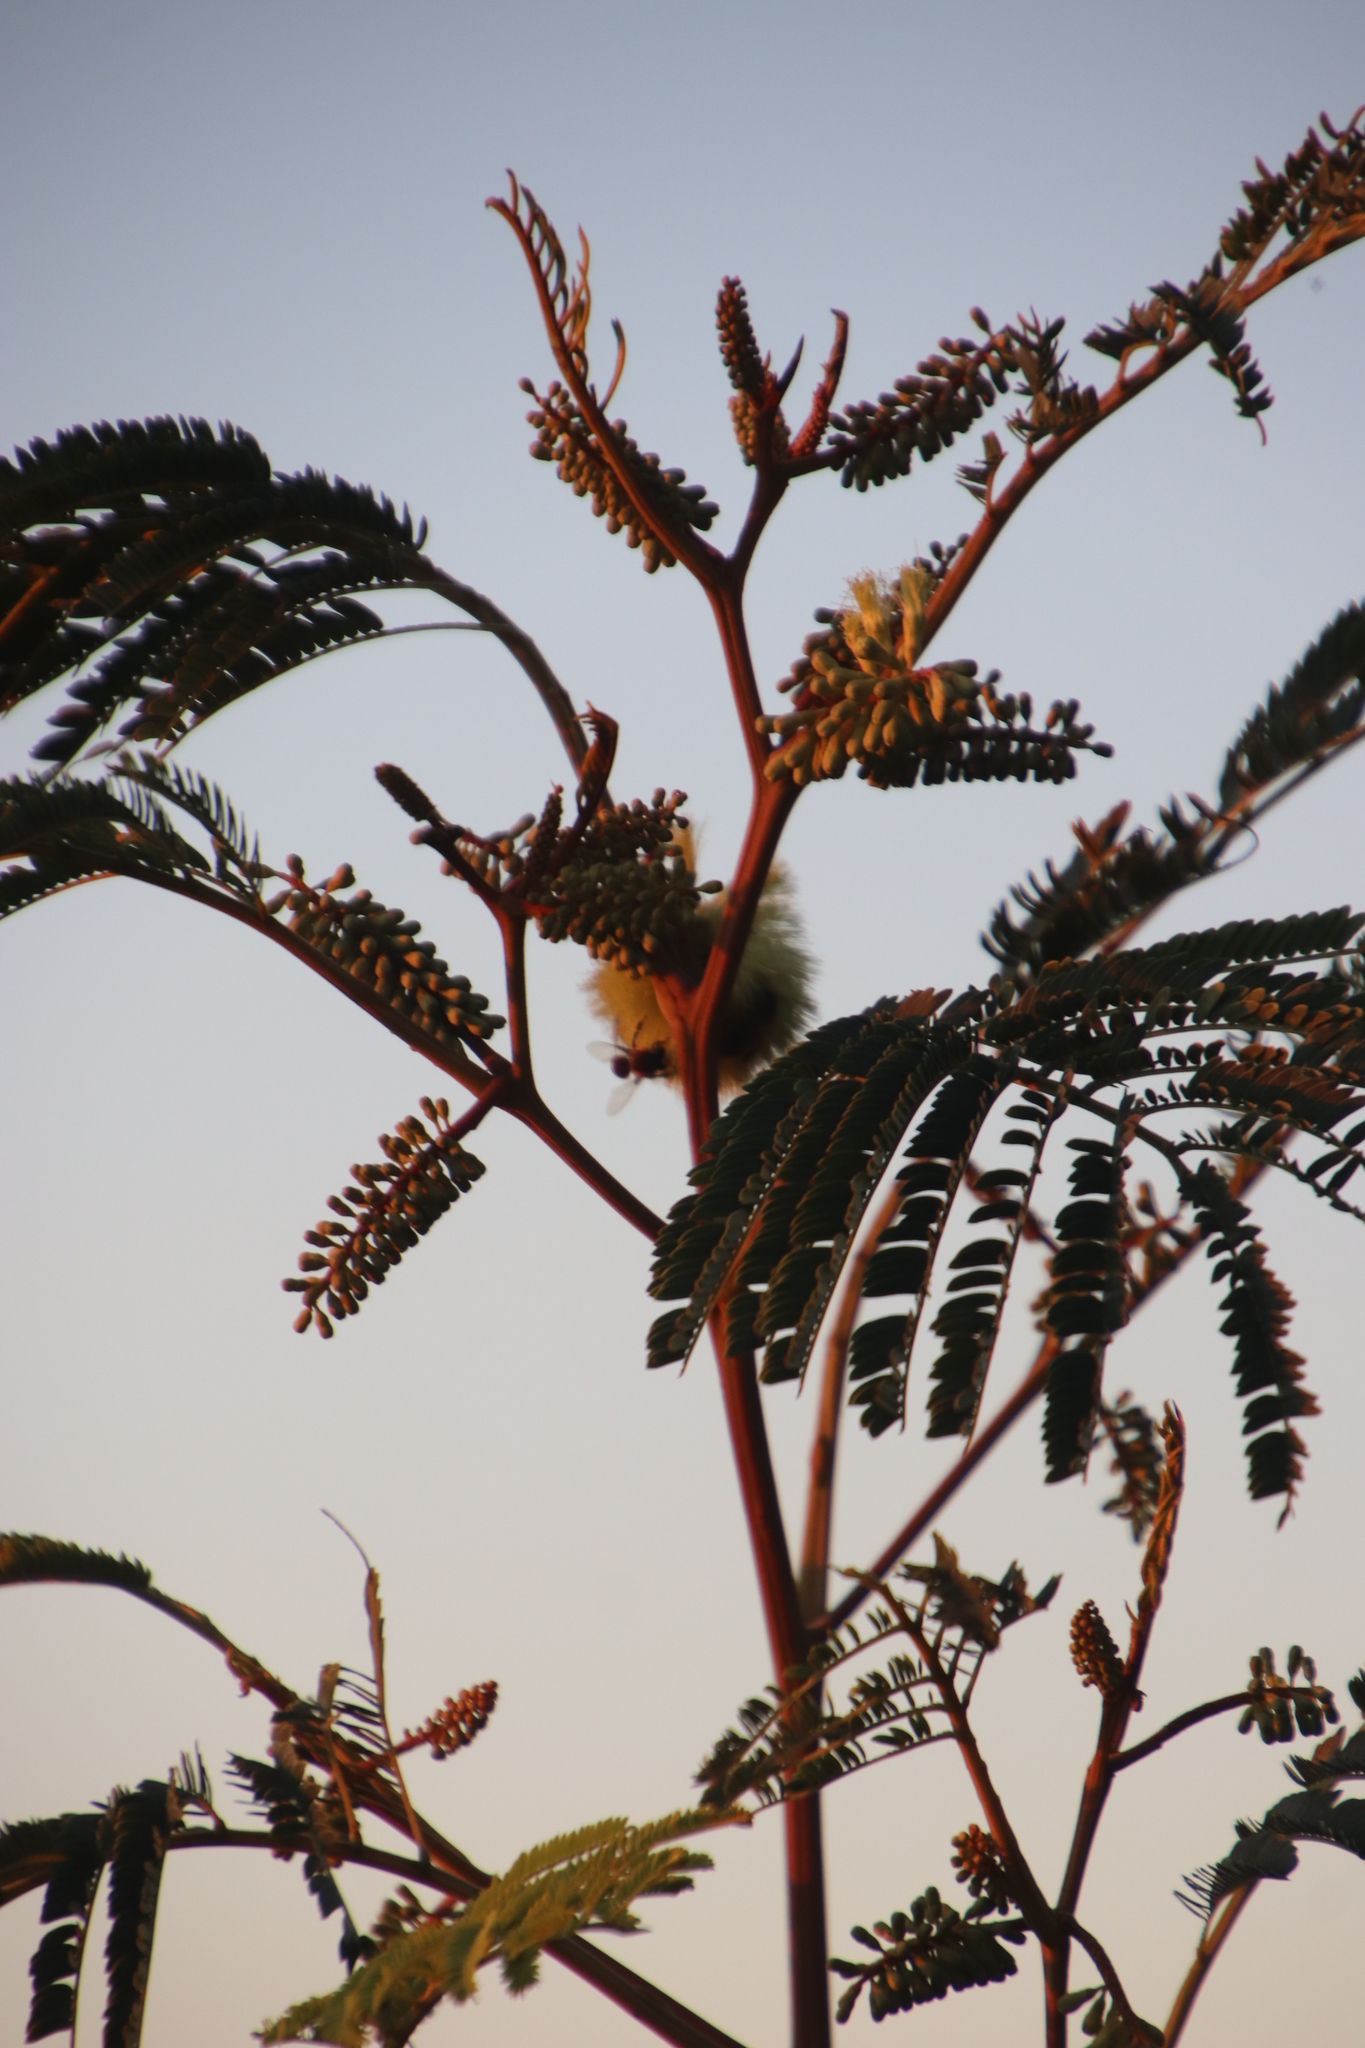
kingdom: Plantae
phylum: Tracheophyta
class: Magnoliopsida
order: Fabales
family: Fabaceae
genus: Paraserianthes
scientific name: Paraserianthes lophantha
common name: Plume albizia
